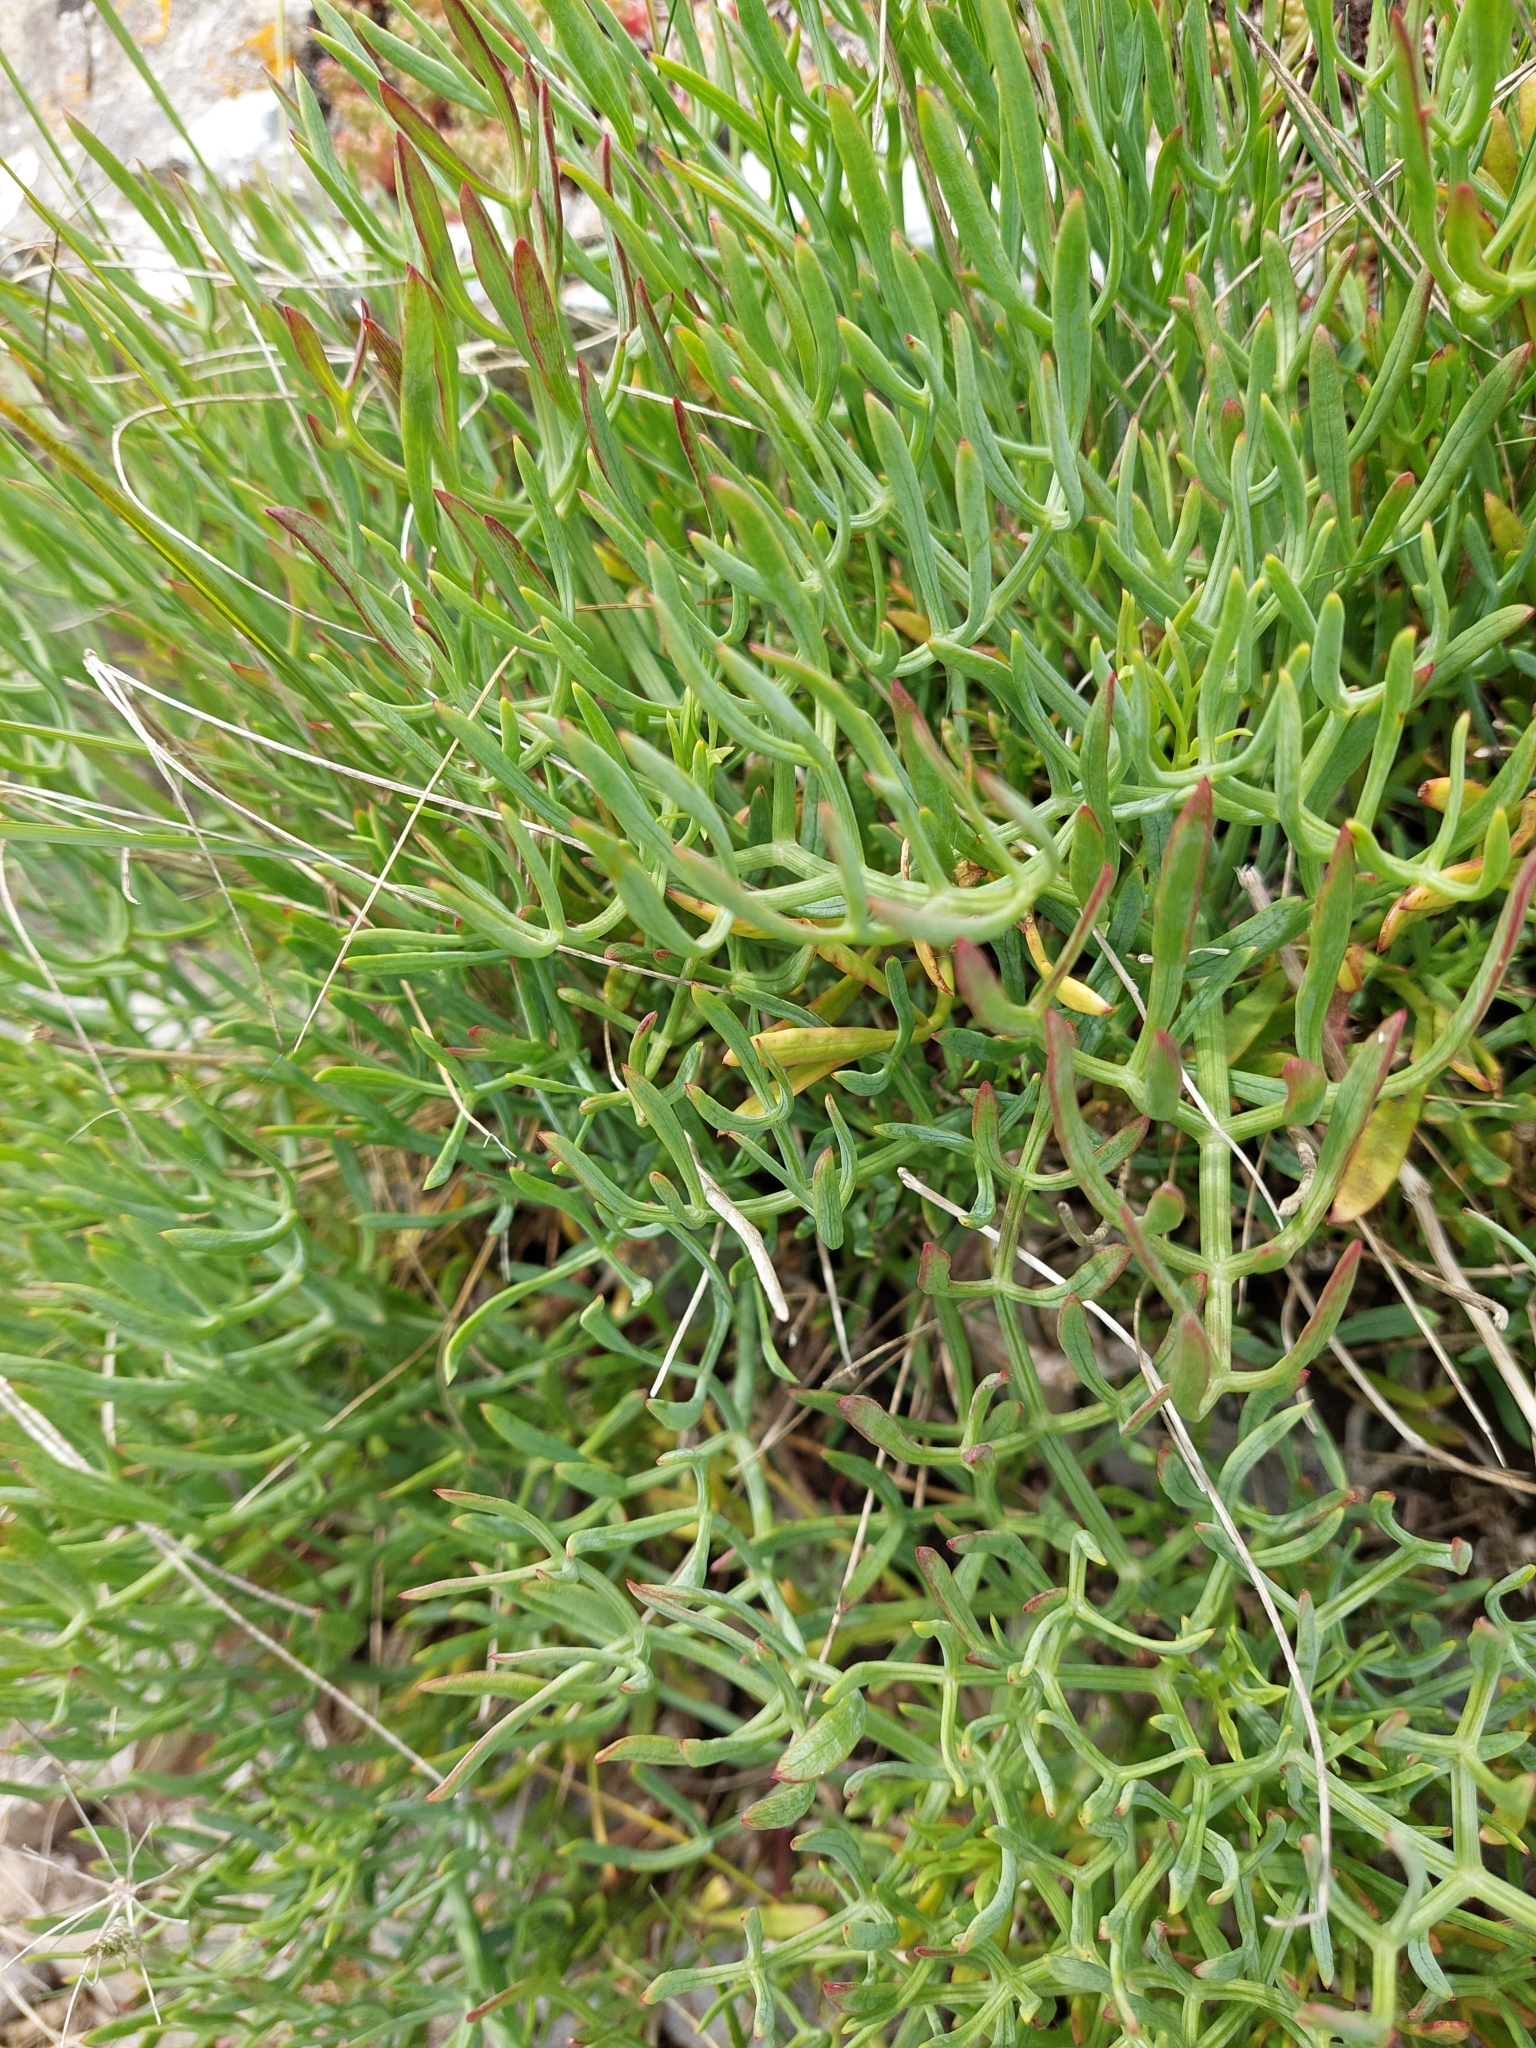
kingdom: Plantae
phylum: Tracheophyta
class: Magnoliopsida
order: Apiales
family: Apiaceae
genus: Crithmum
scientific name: Crithmum maritimum
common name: Rock samphire
